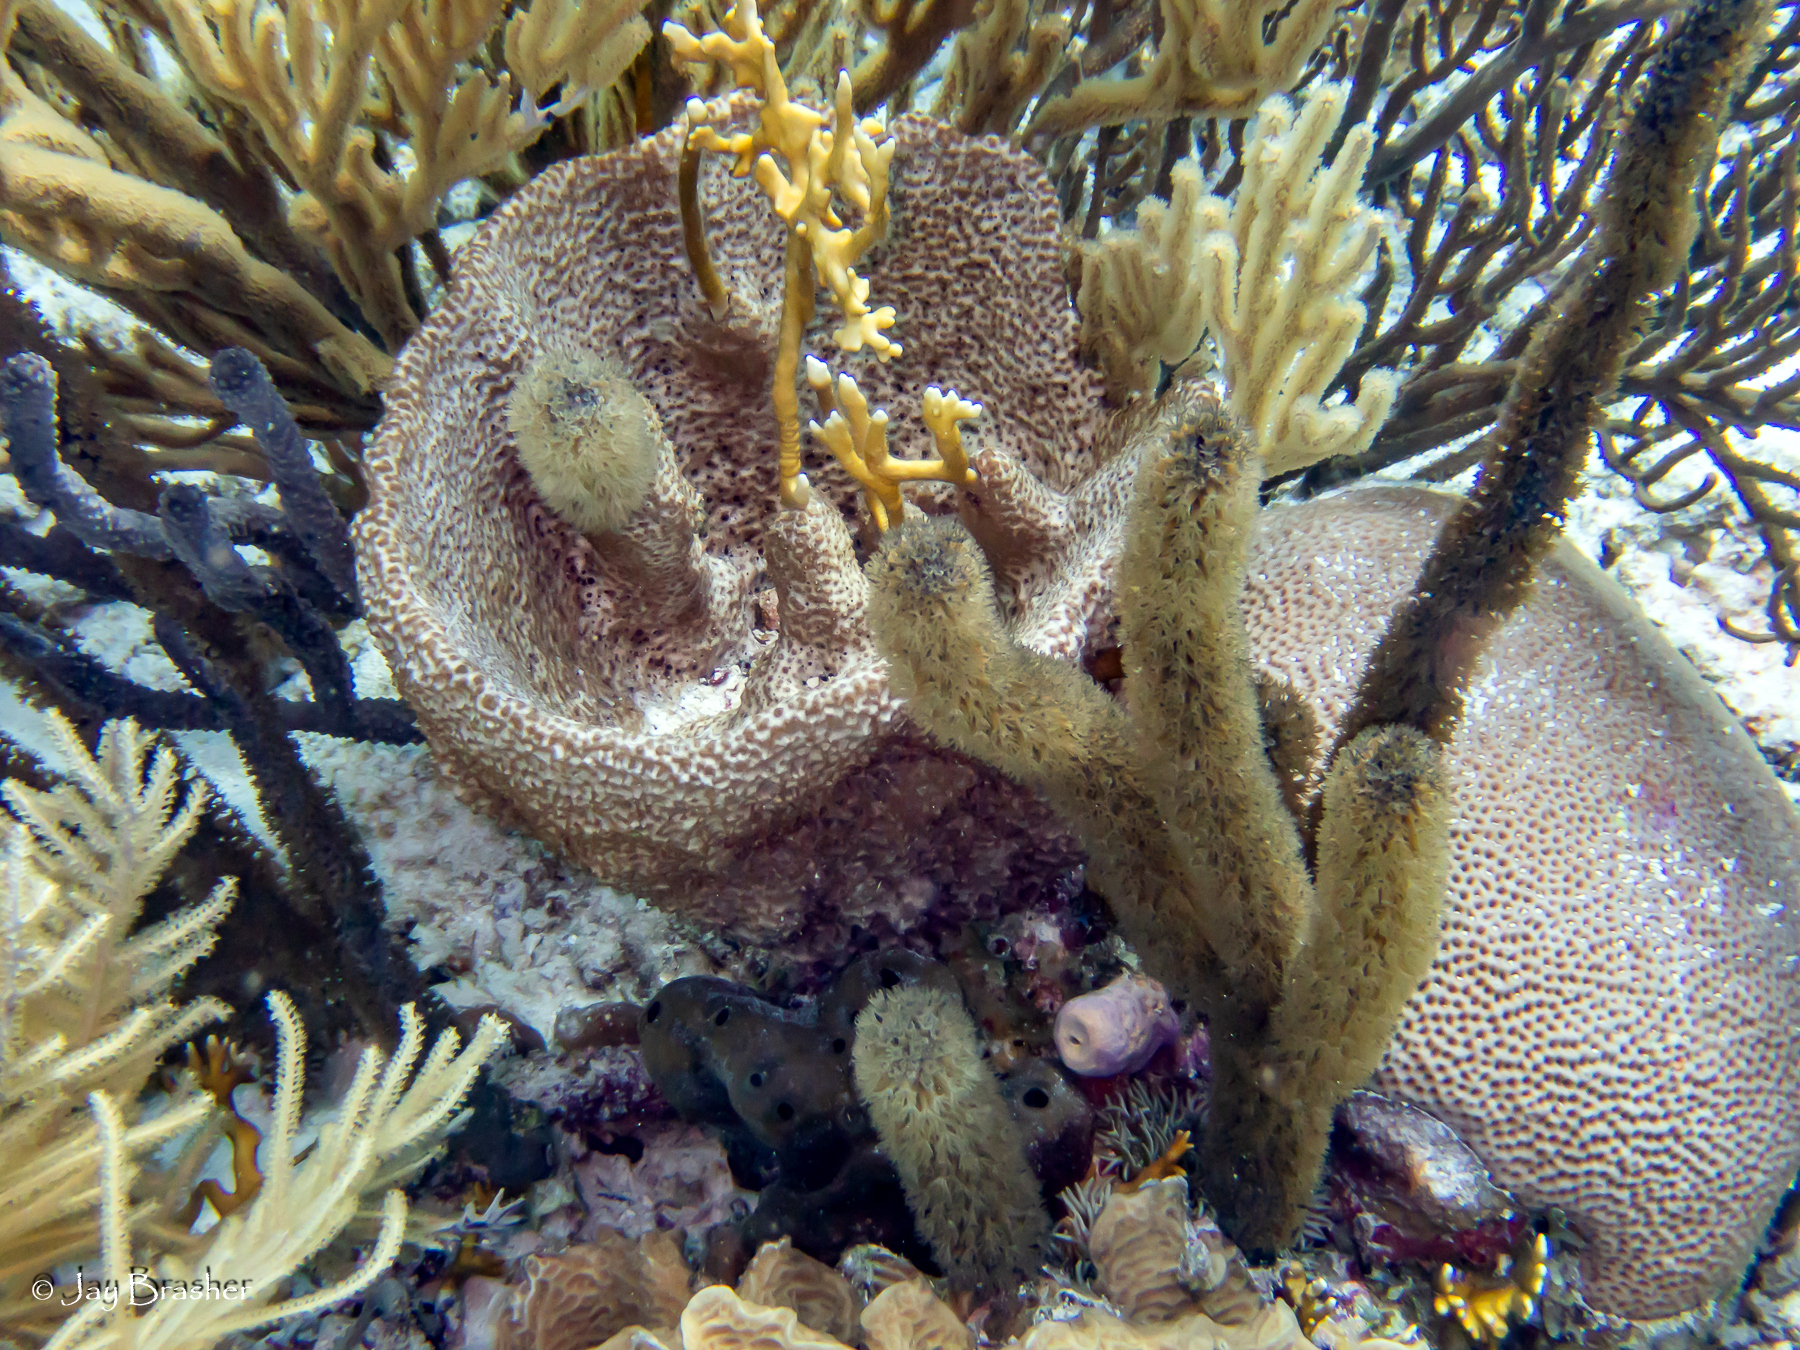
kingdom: Animalia
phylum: Porifera
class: Demospongiae
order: Dictyoceratida
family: Irciniidae
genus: Ircinia
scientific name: Ircinia campana
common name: Vase sponge
